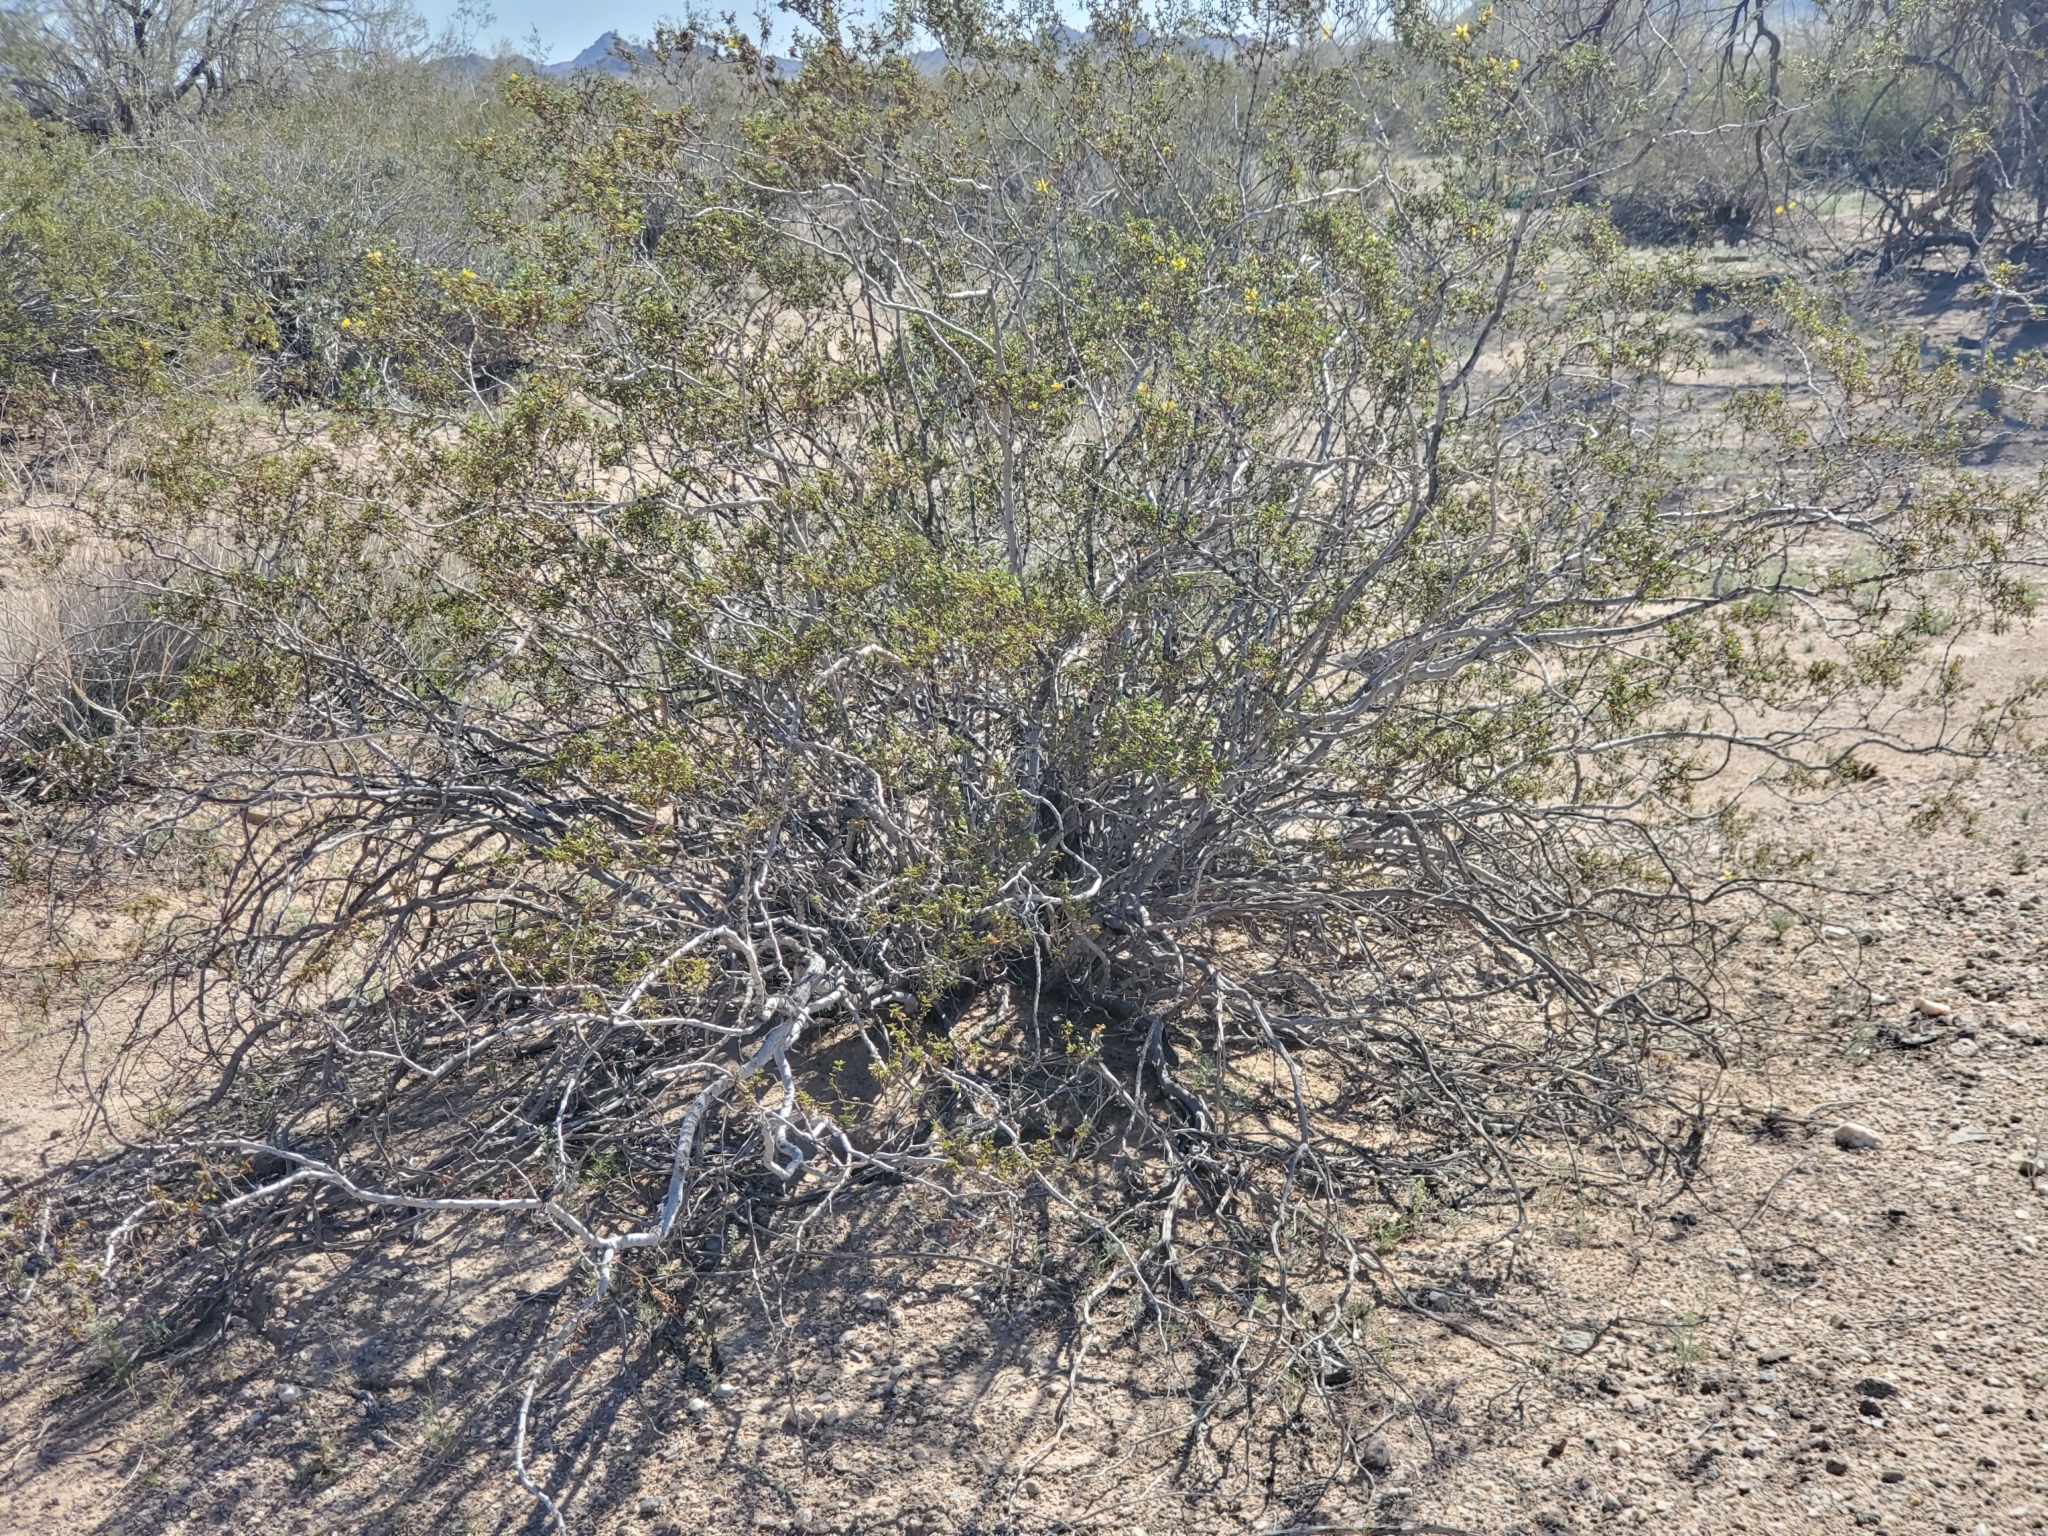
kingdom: Plantae
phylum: Tracheophyta
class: Magnoliopsida
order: Zygophyllales
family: Zygophyllaceae
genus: Larrea
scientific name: Larrea tridentata
